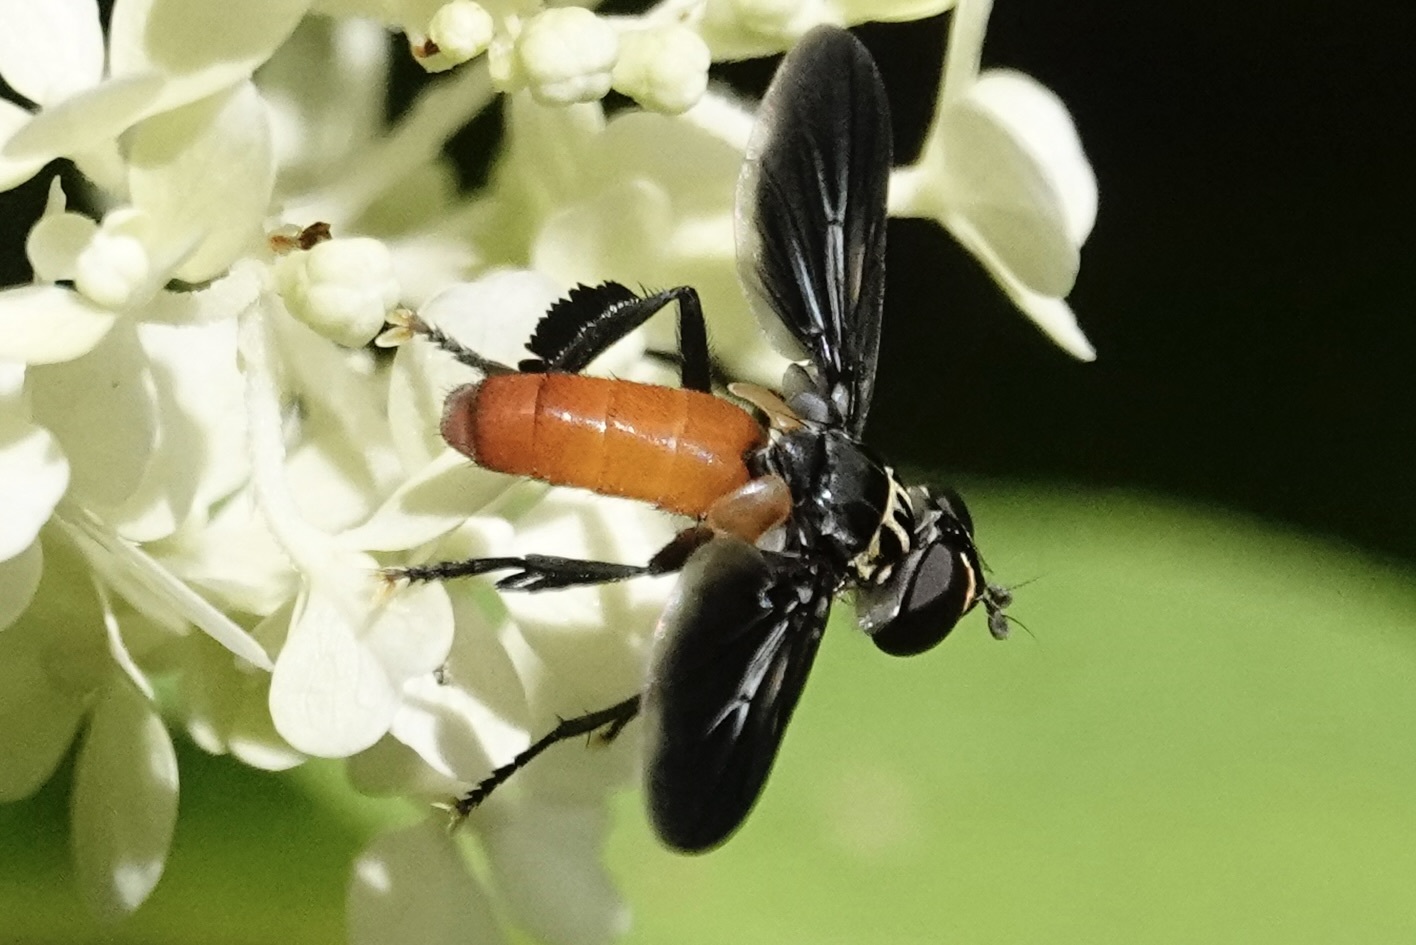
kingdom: Animalia
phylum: Arthropoda
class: Insecta
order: Diptera
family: Tachinidae
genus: Trichopoda
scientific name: Trichopoda pennipes
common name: Tachinid fly
